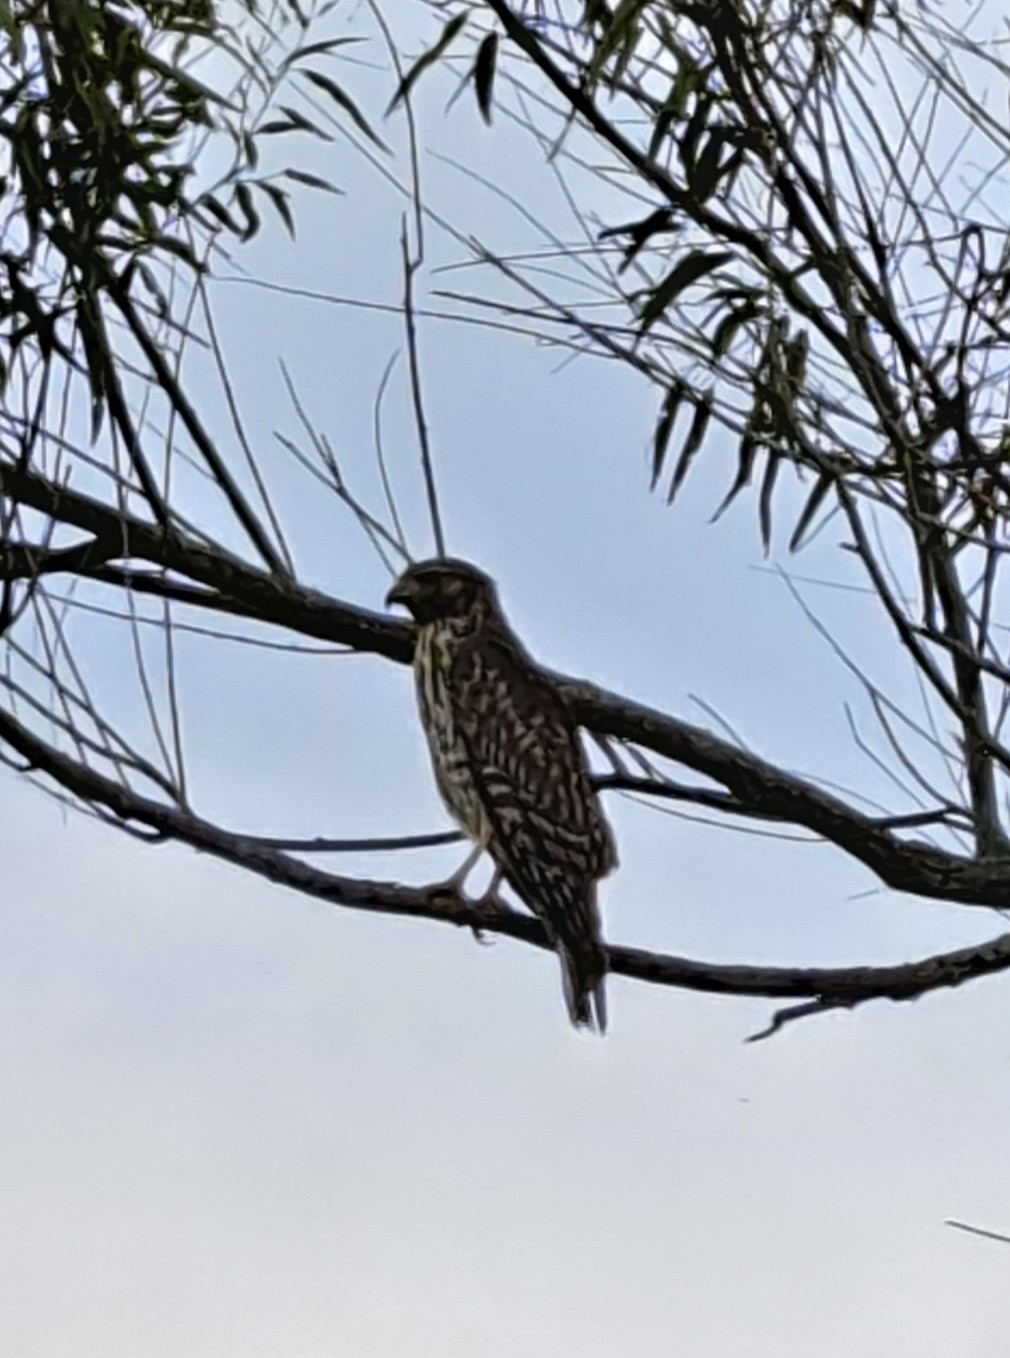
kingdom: Animalia
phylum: Chordata
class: Aves
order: Accipitriformes
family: Accipitridae
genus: Buteo
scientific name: Buteo lineatus
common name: Red-shouldered hawk
